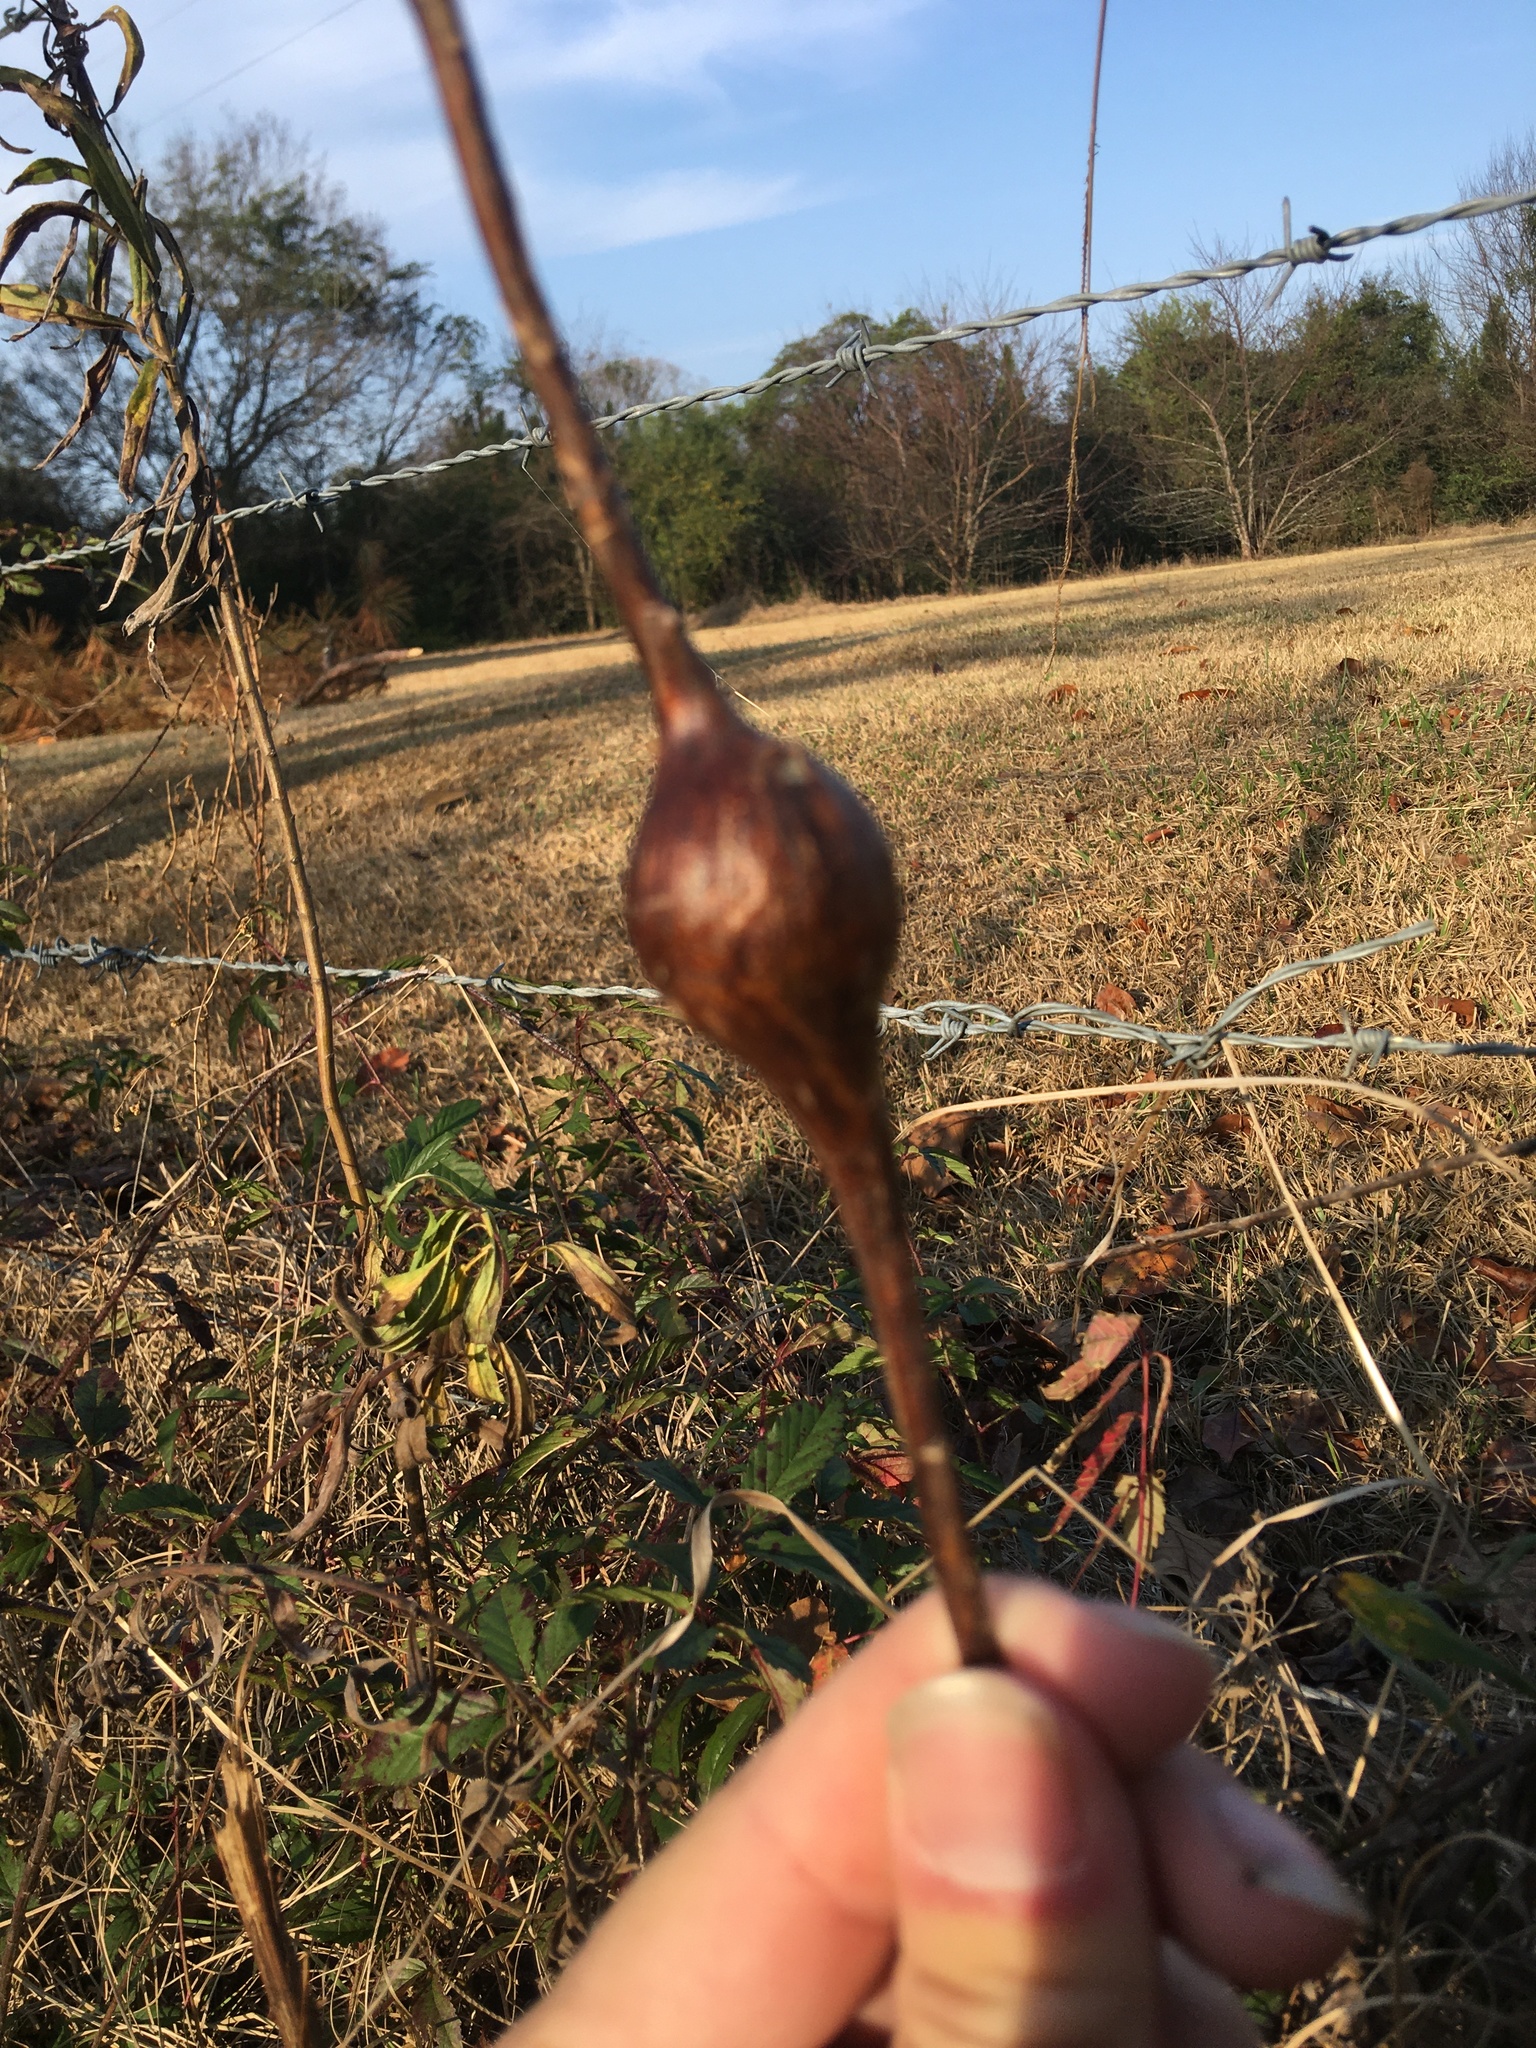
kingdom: Animalia
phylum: Arthropoda
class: Insecta
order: Diptera
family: Tephritidae
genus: Eurosta
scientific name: Eurosta solidaginis
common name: Goldenrod gall fly
